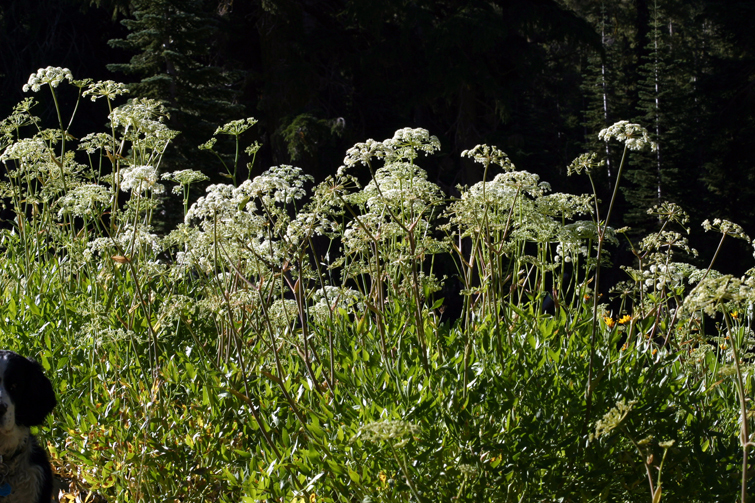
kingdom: Plantae
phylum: Tracheophyta
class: Magnoliopsida
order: Apiales
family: Apiaceae
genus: Angelica
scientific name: Angelica breweri
